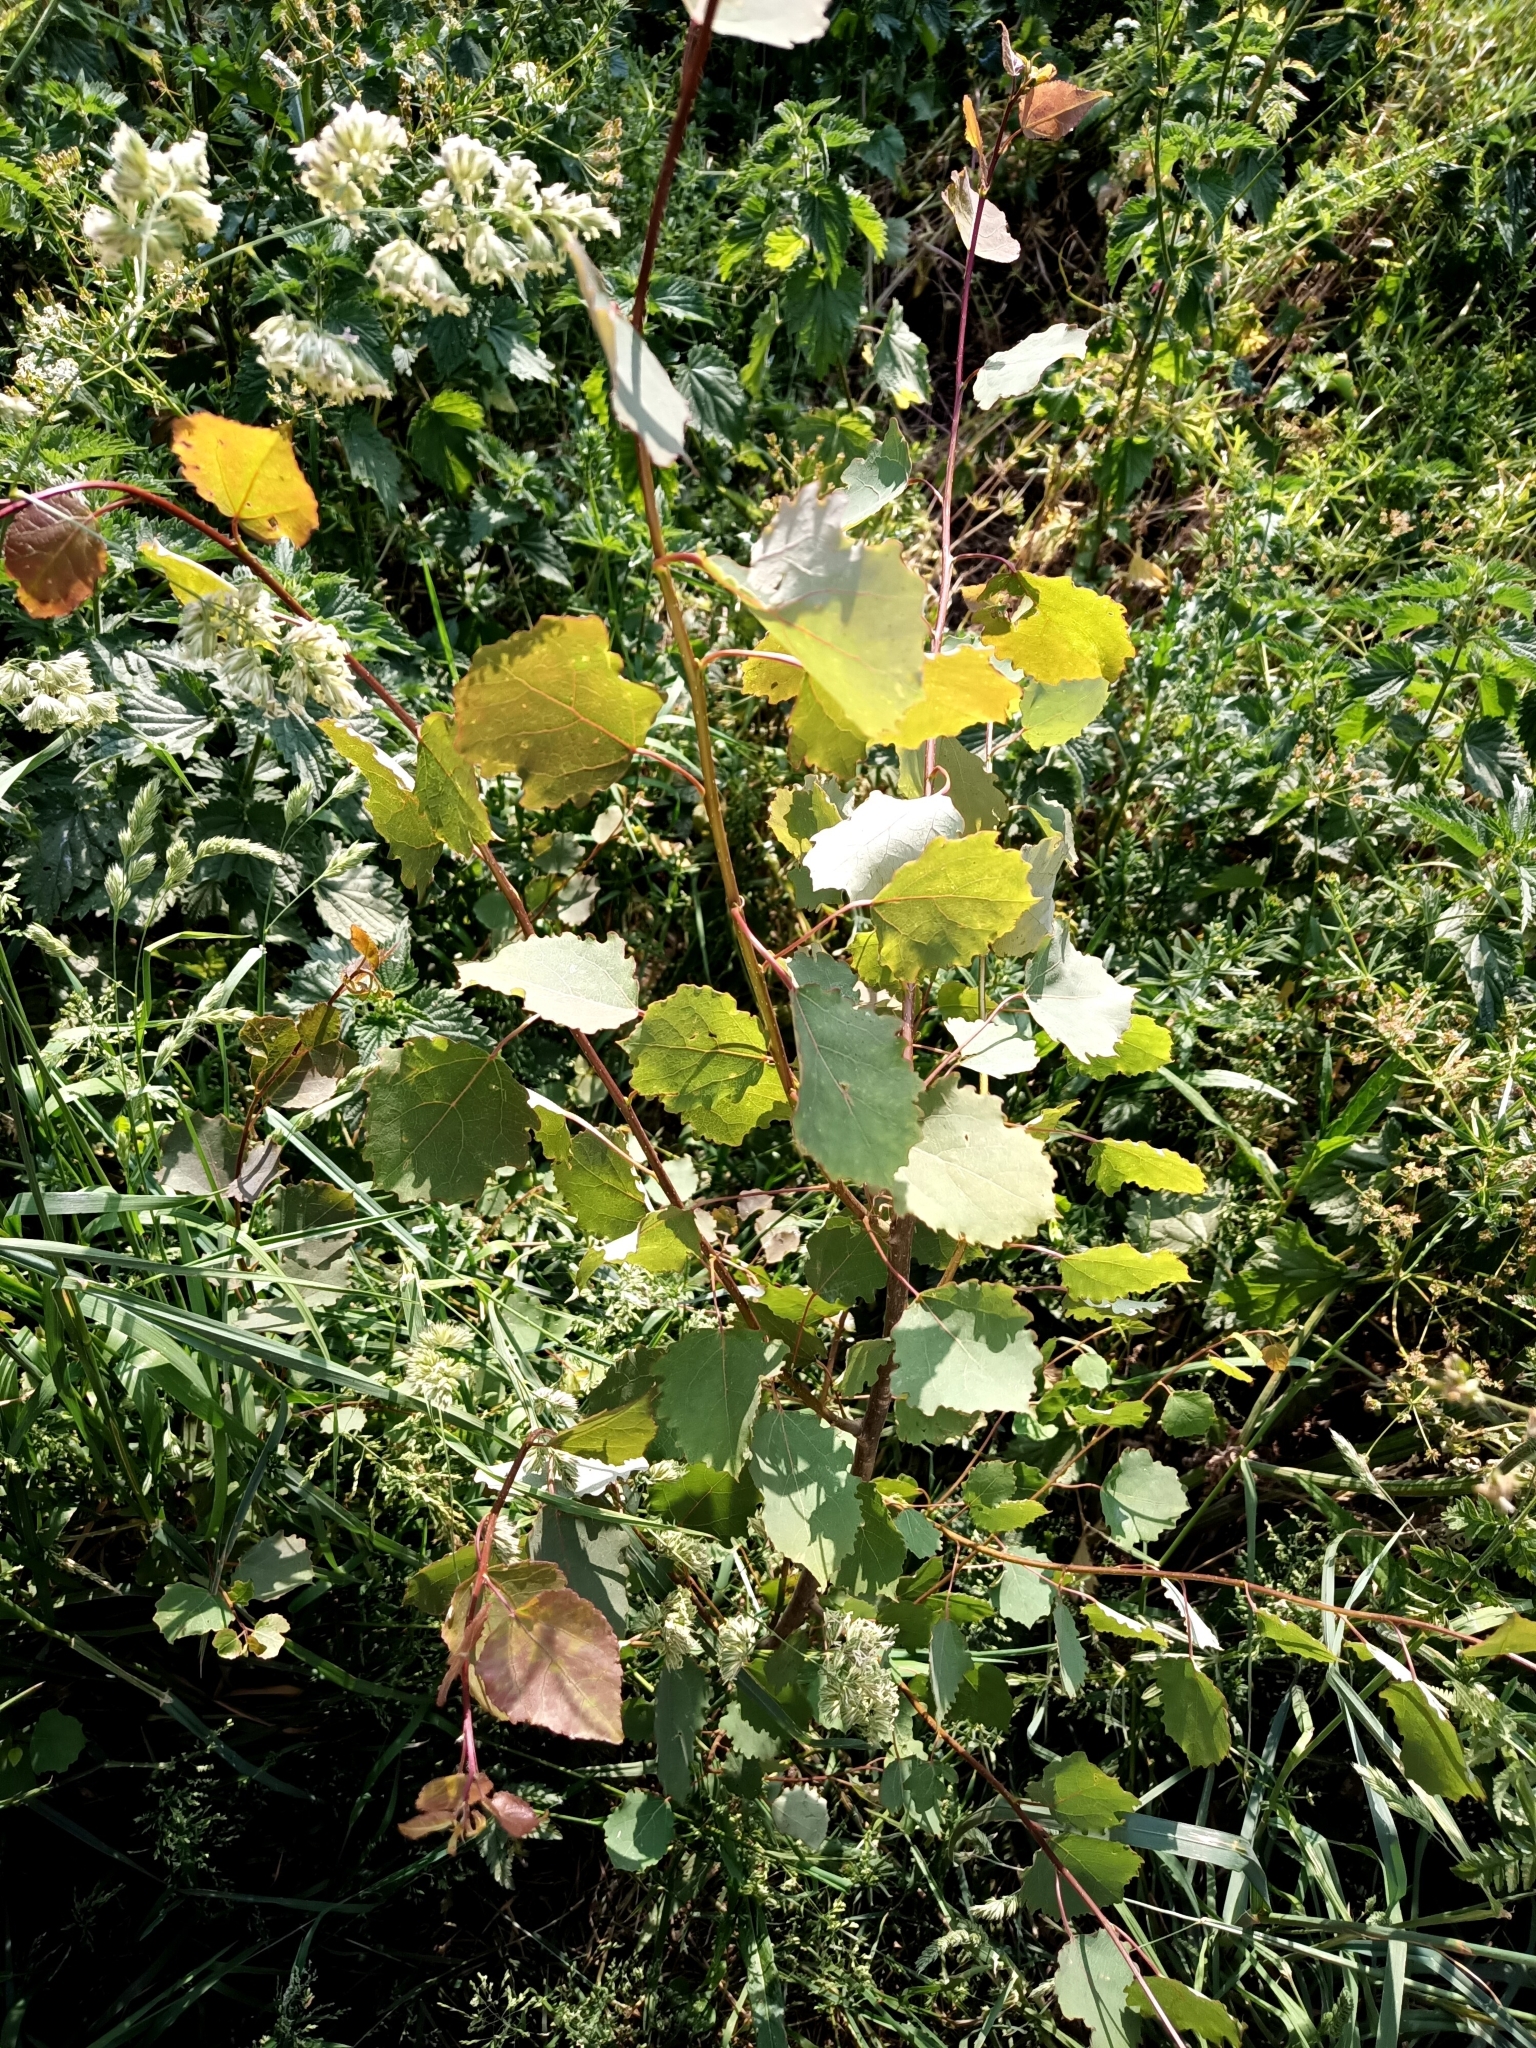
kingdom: Plantae
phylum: Tracheophyta
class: Magnoliopsida
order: Malpighiales
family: Salicaceae
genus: Populus
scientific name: Populus tremula
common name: European aspen
